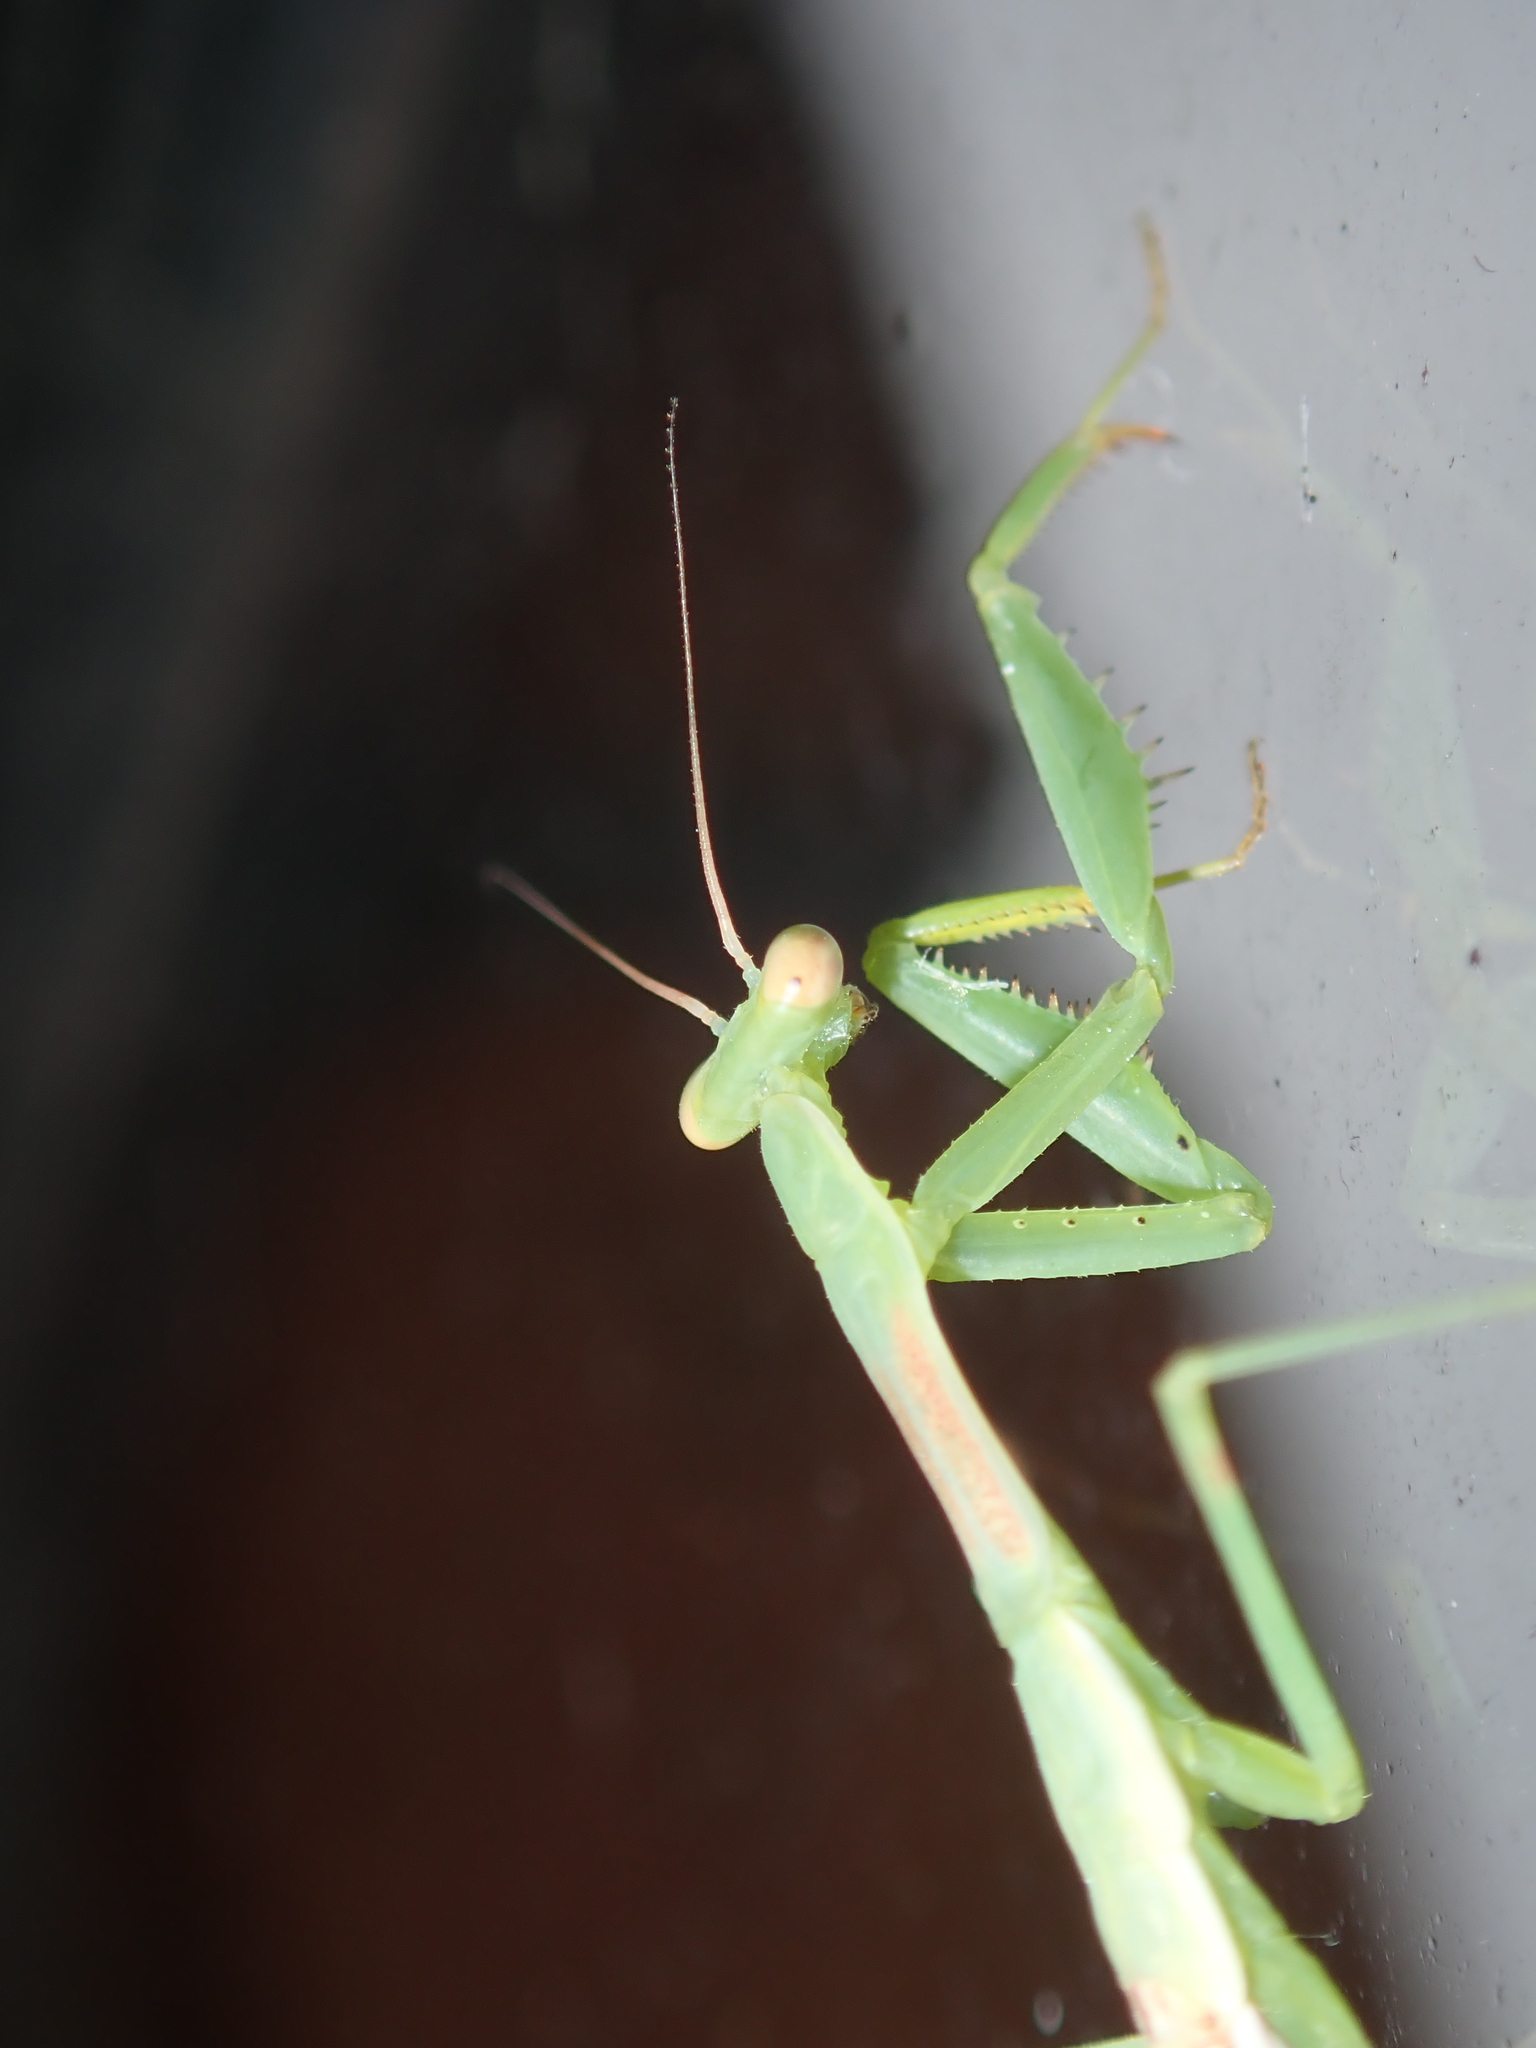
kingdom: Animalia
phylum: Arthropoda
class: Insecta
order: Mantodea
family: Miomantidae
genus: Miomantis
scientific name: Miomantis caffra
